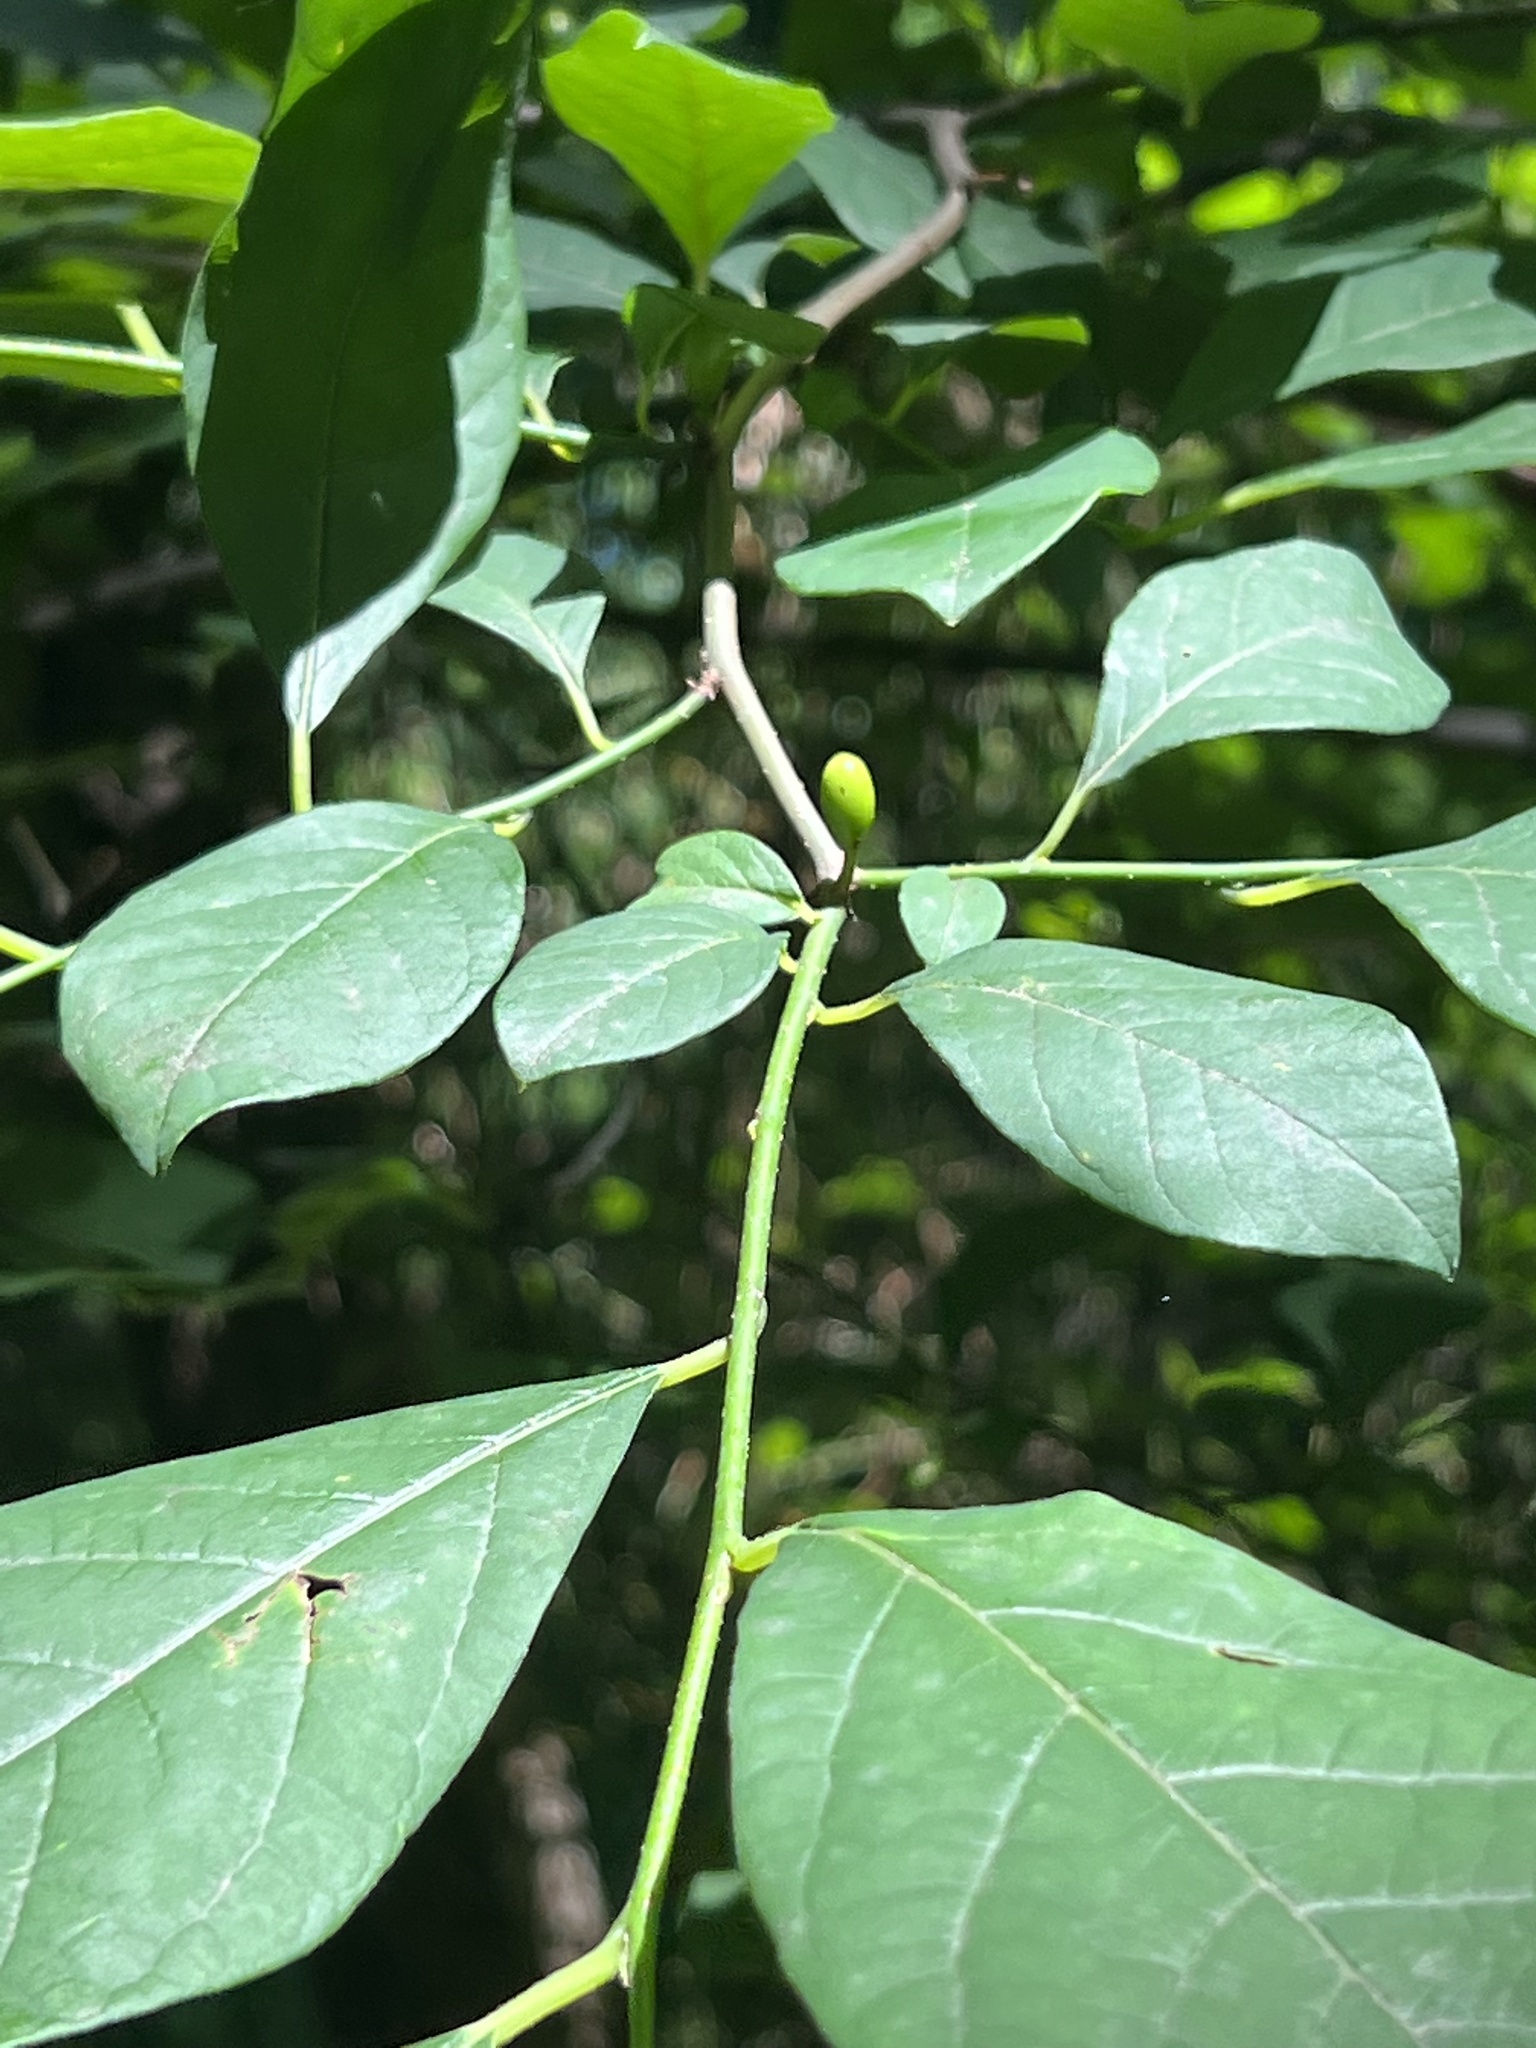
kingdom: Plantae
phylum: Tracheophyta
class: Magnoliopsida
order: Laurales
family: Lauraceae
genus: Lindera
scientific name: Lindera benzoin
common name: Spicebush
